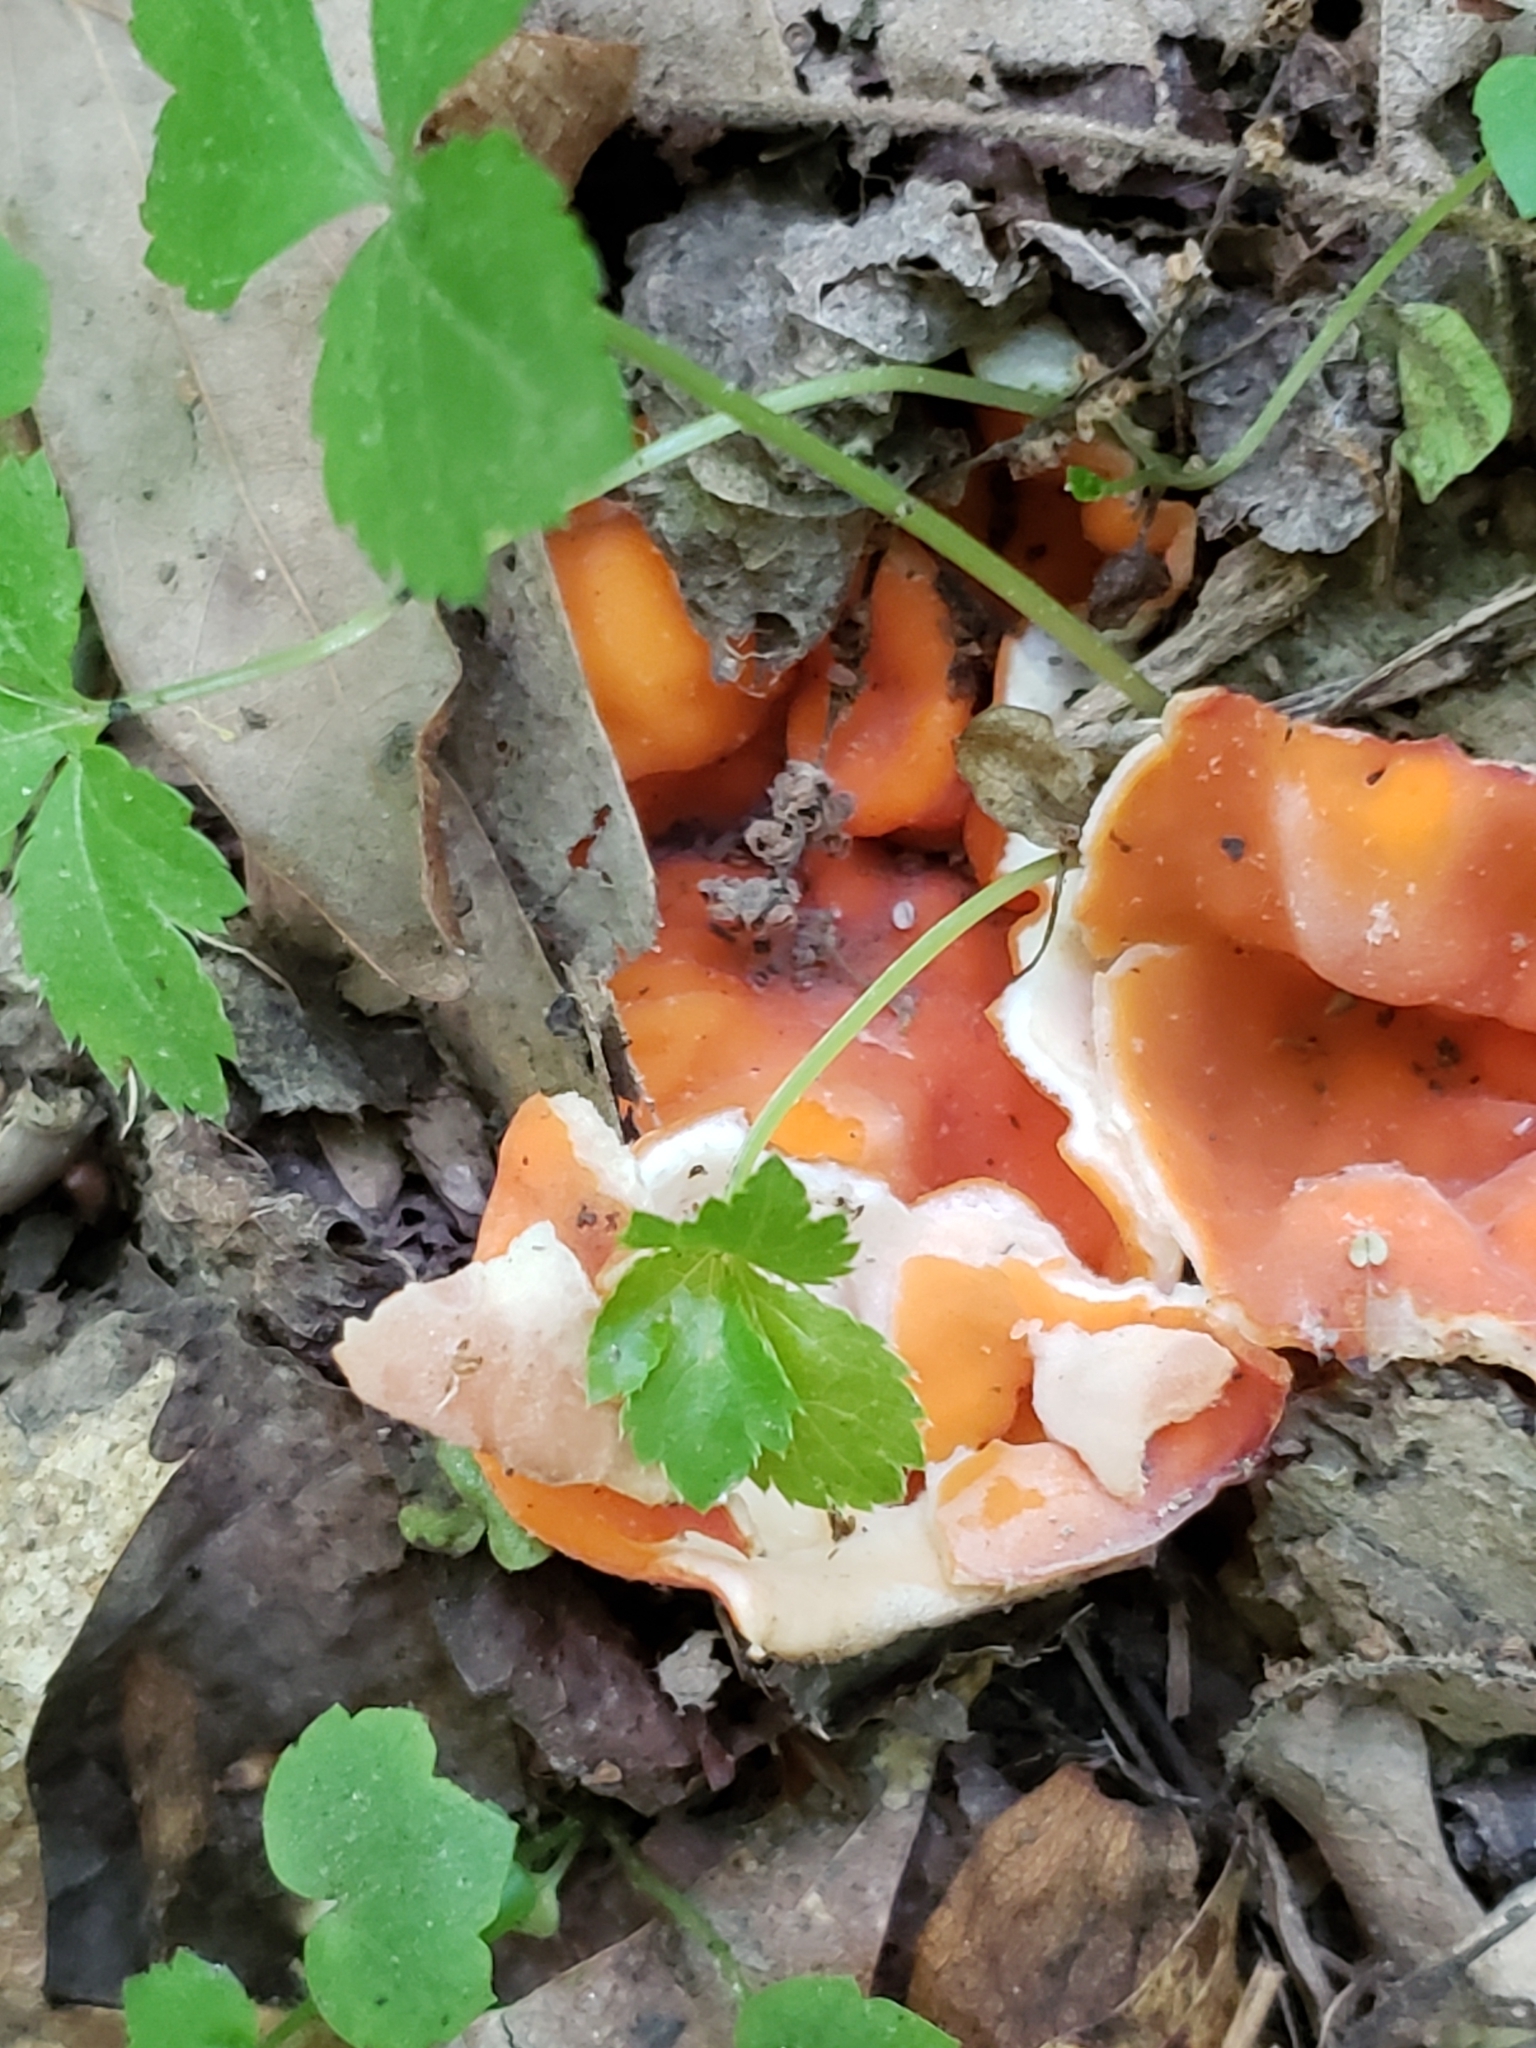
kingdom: Fungi
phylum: Ascomycota
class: Pezizomycetes
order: Pezizales
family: Pyronemataceae
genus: Aleuria
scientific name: Aleuria aurantia
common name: Orange peel fungus
